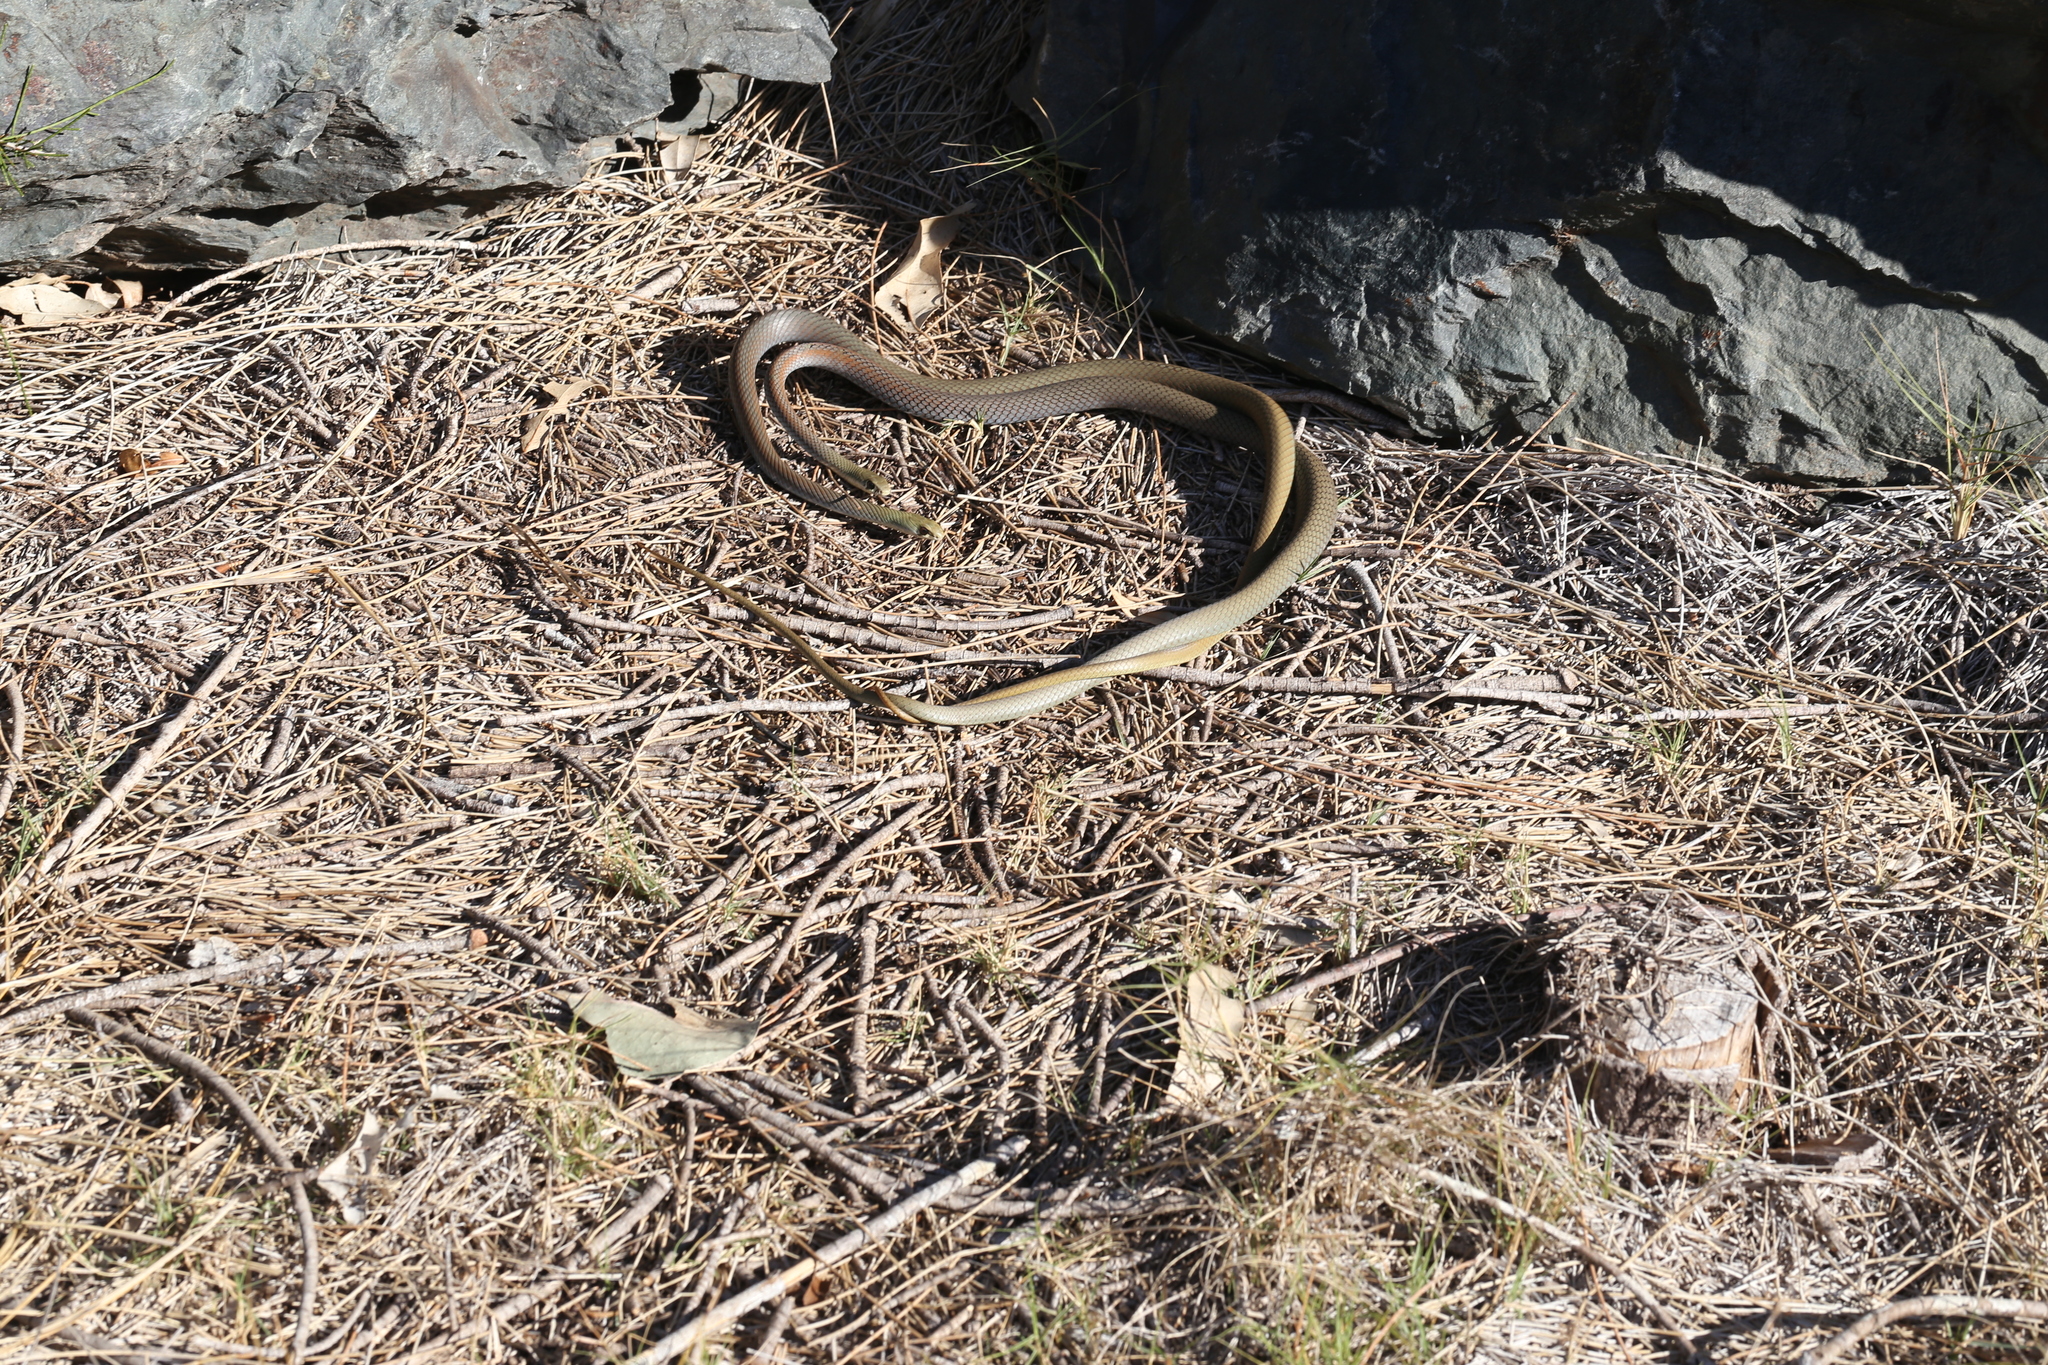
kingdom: Animalia
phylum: Chordata
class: Squamata
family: Elapidae
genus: Demansia
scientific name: Demansia psammophis
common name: Yellow-faced whip snake
